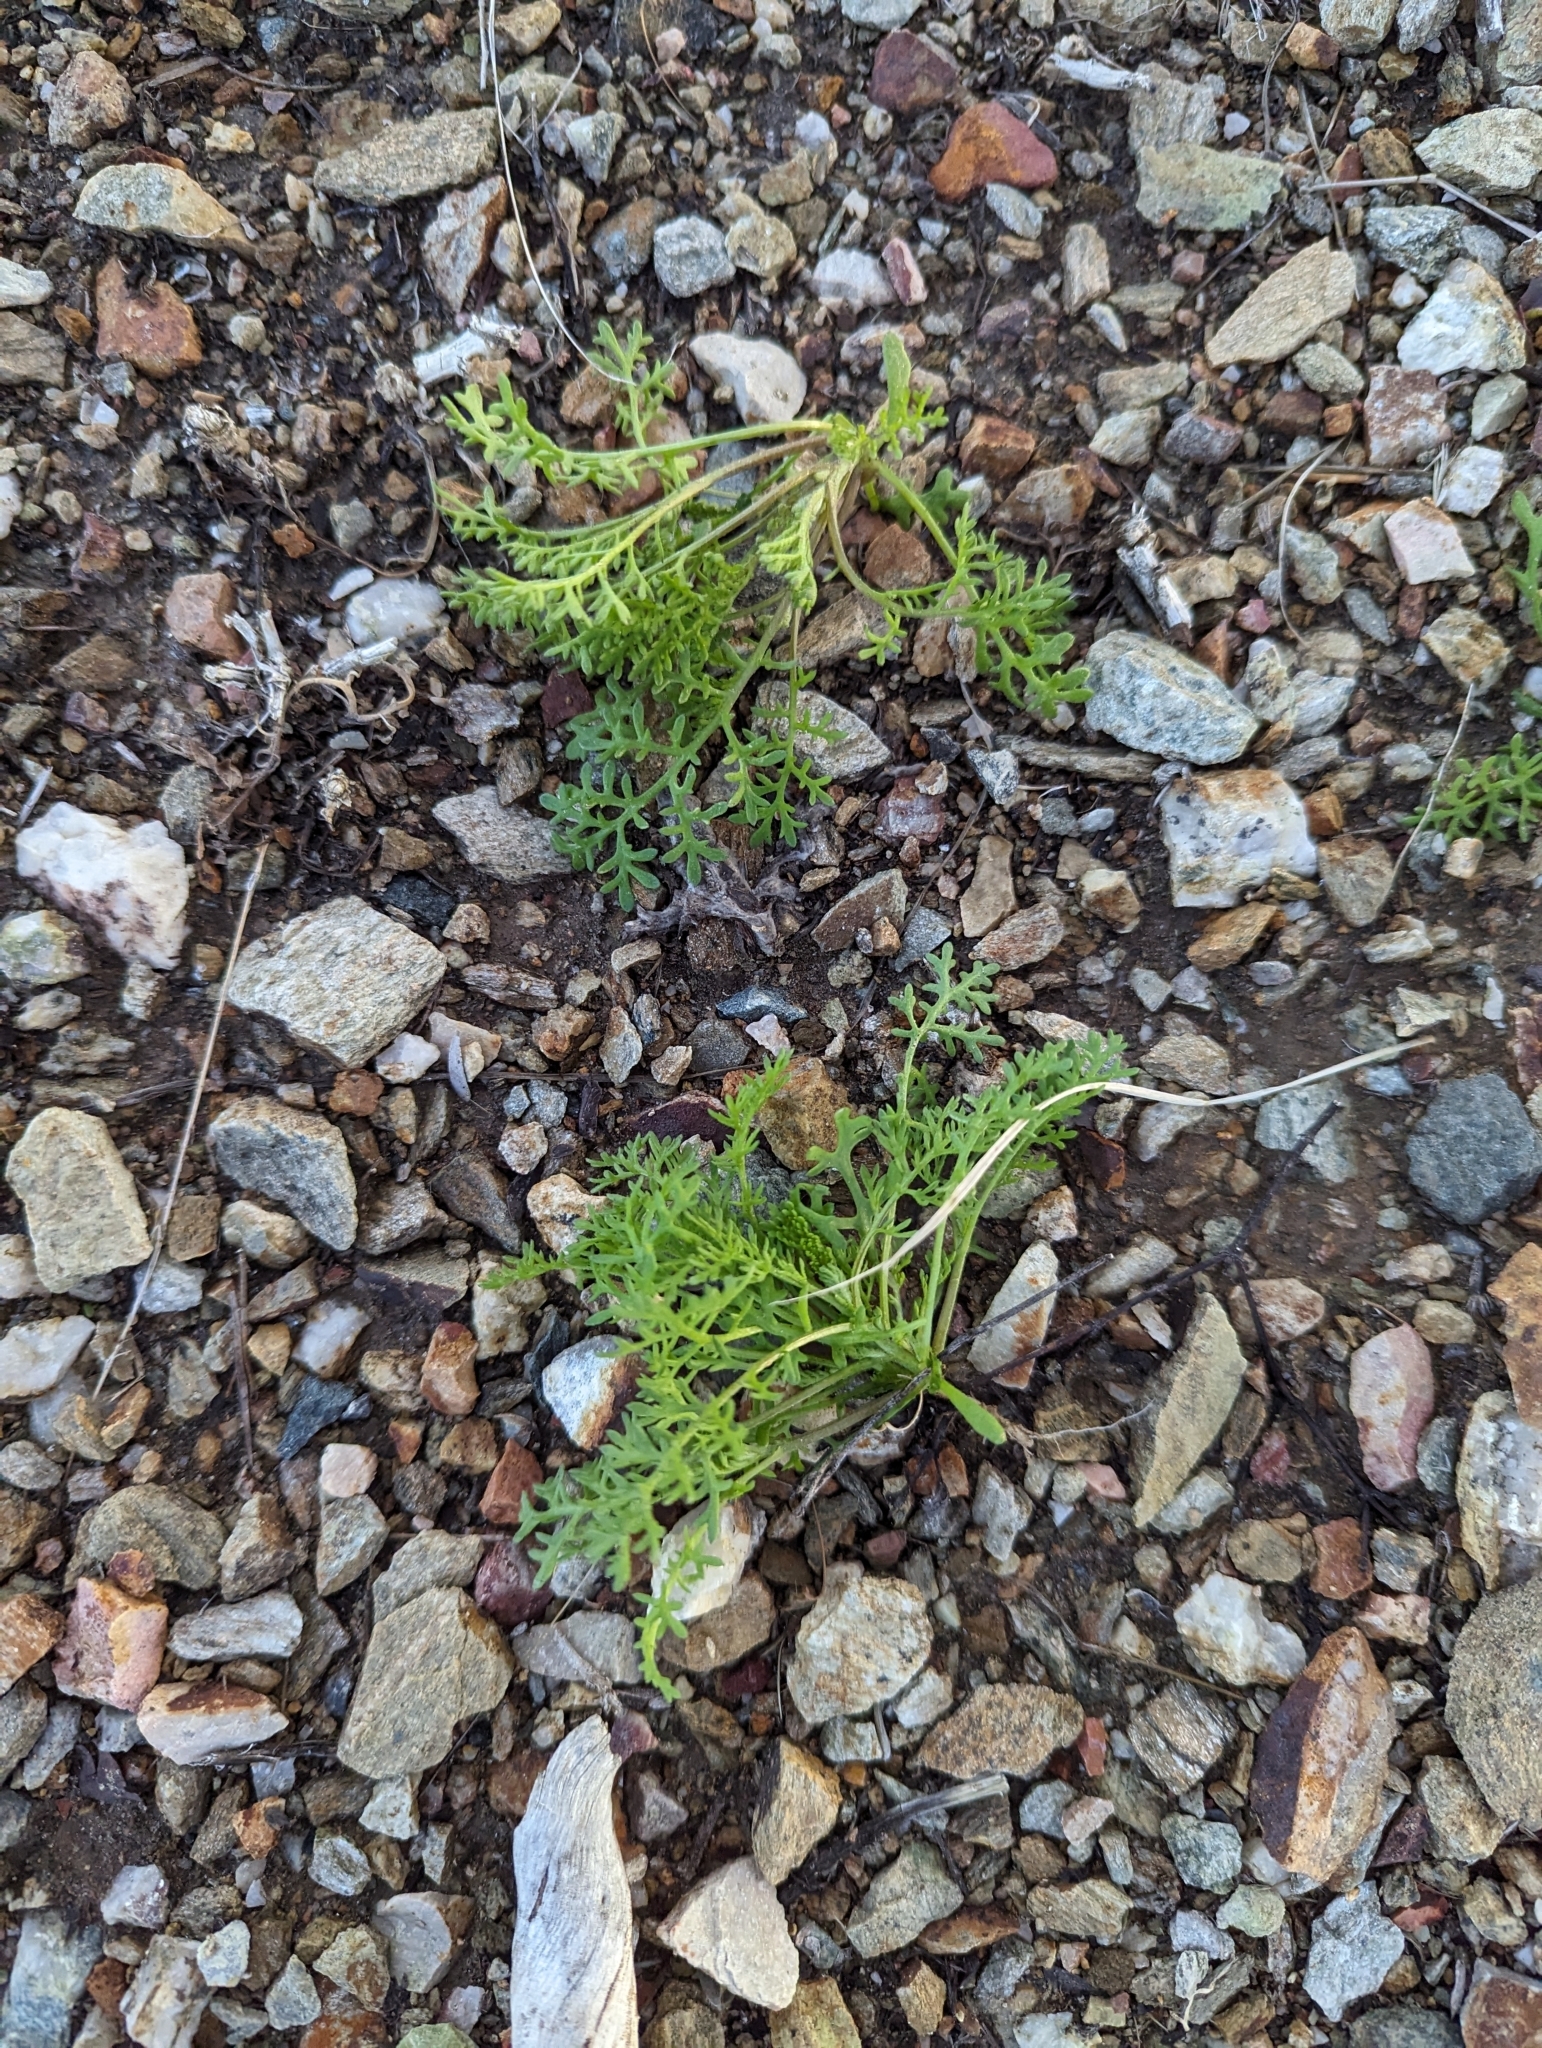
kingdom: Plantae
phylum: Tracheophyta
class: Magnoliopsida
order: Asterales
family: Asteraceae
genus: Oncosiphon
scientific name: Oncosiphon pilulifer
